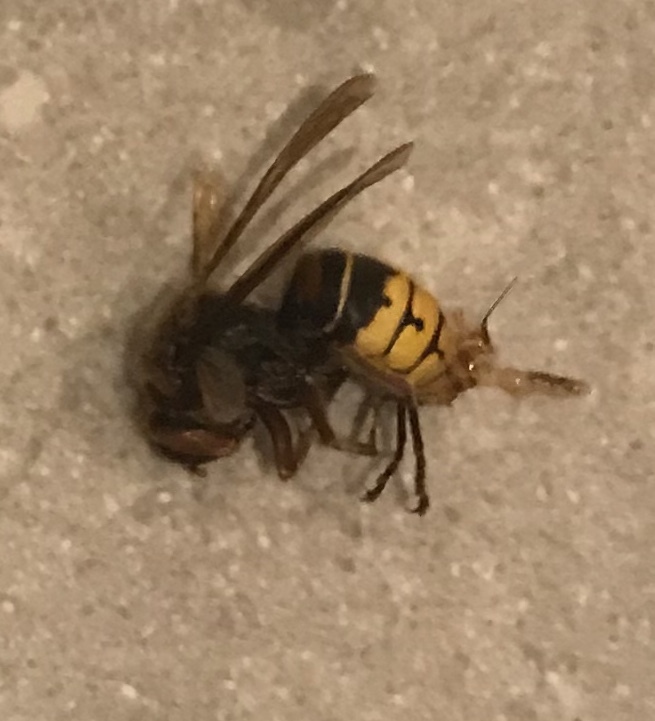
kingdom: Animalia
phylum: Arthropoda
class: Insecta
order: Hymenoptera
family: Vespidae
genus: Vespa
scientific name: Vespa crabro
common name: Hornet
